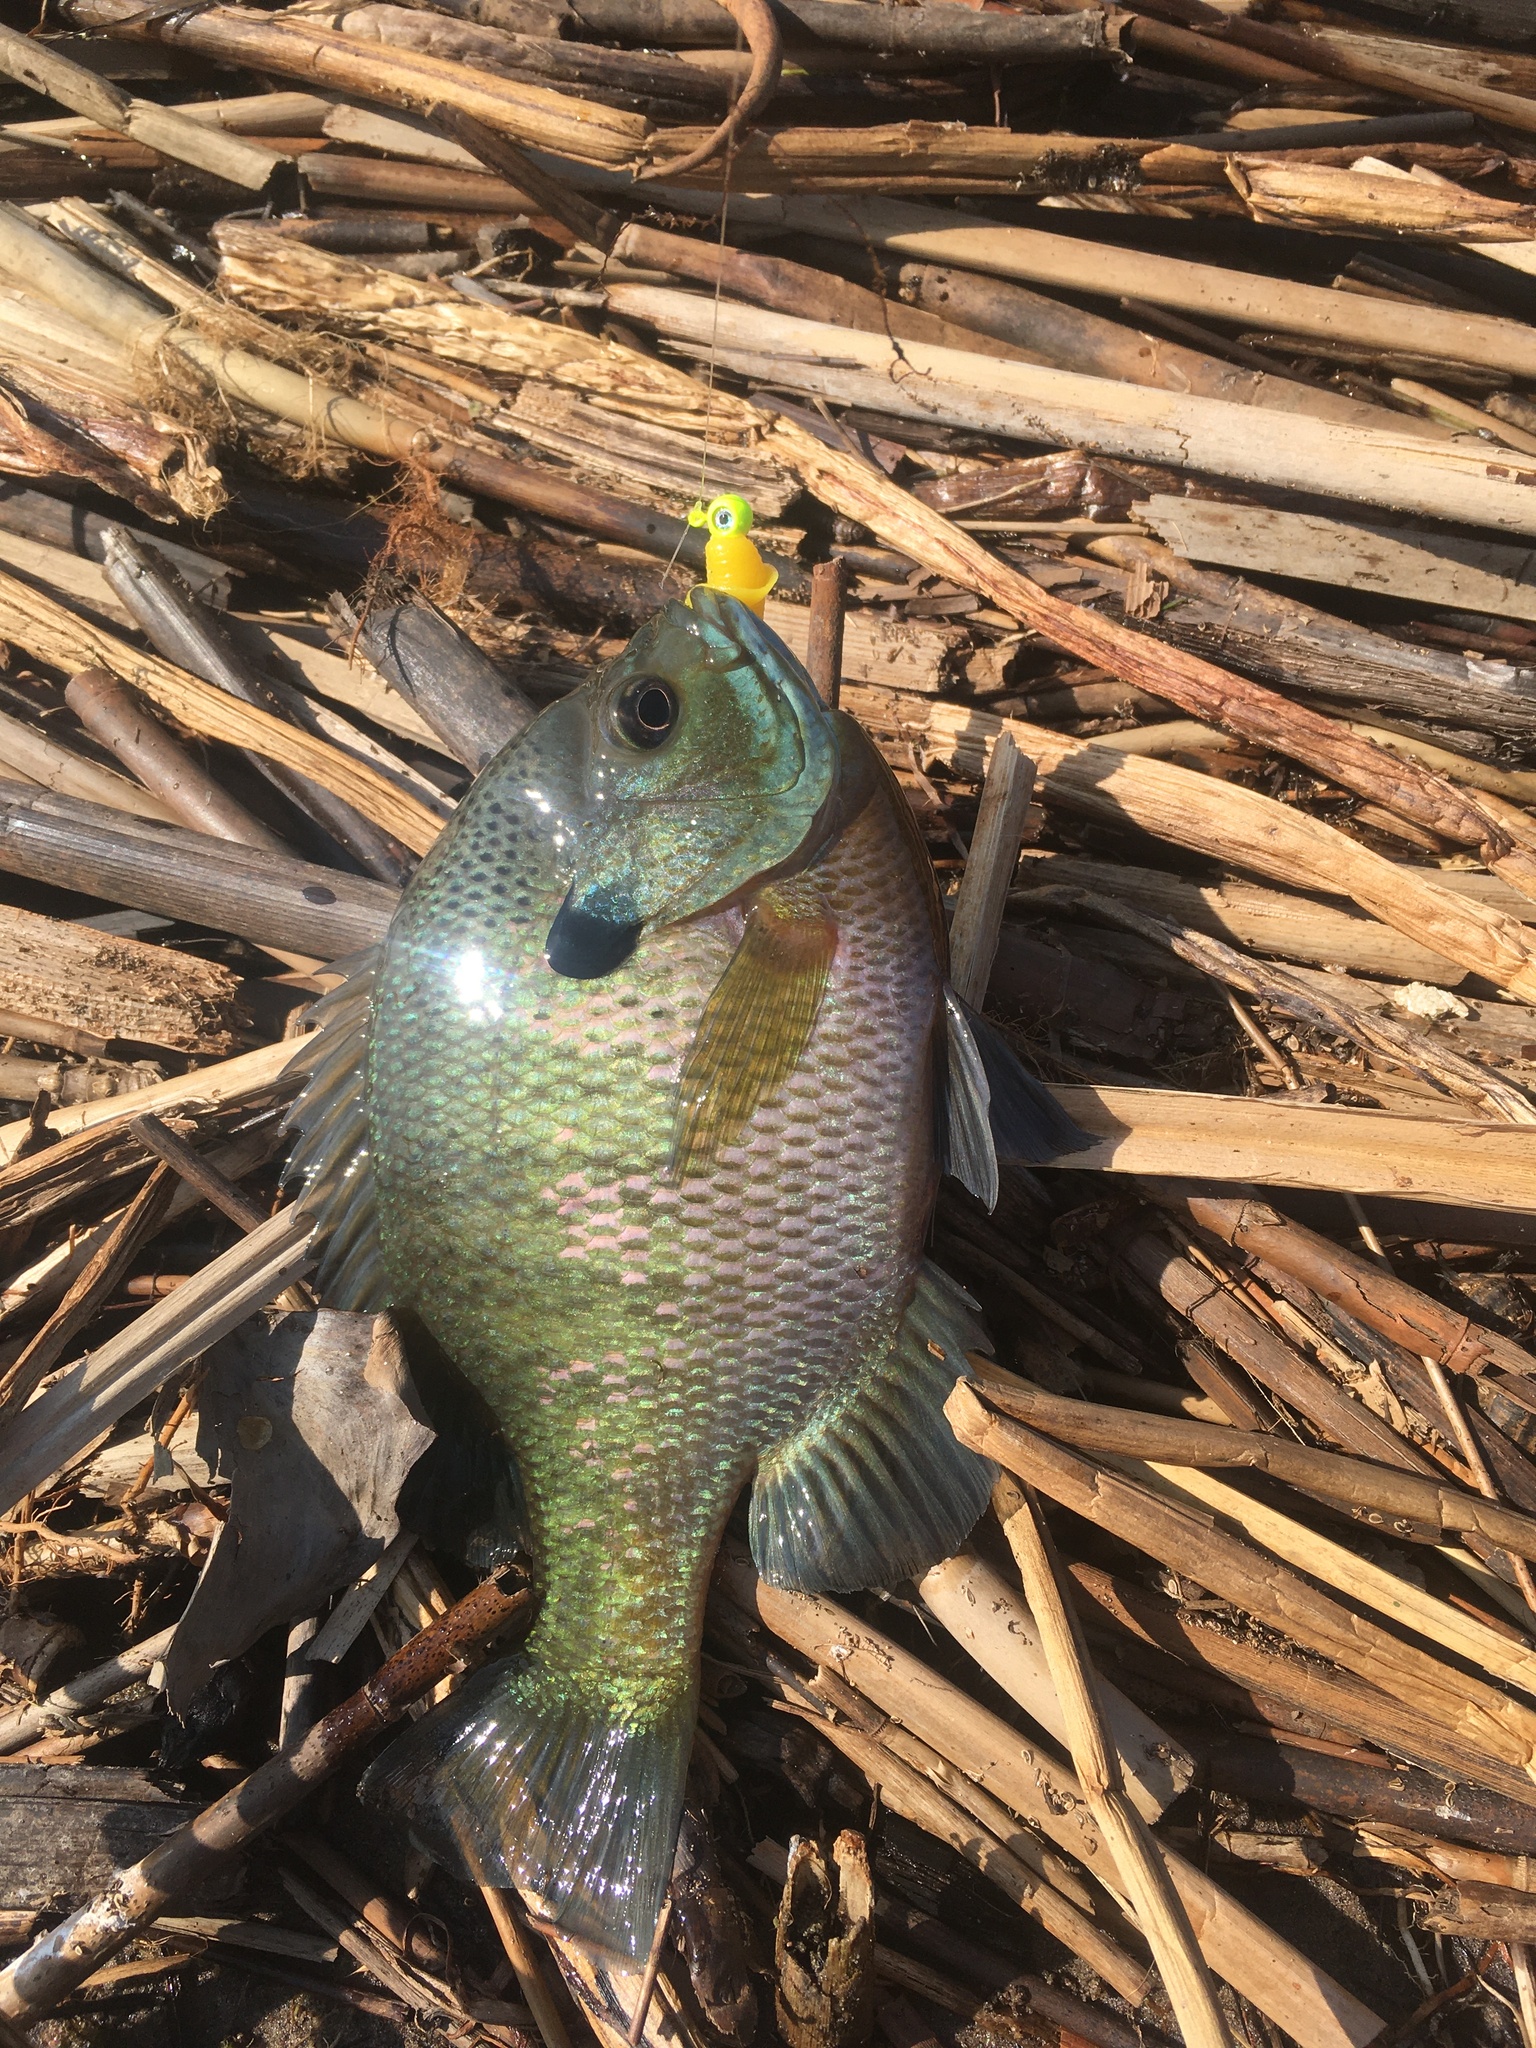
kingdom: Animalia
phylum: Chordata
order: Perciformes
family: Centrarchidae
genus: Lepomis
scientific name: Lepomis macrochirus
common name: Bluegill
